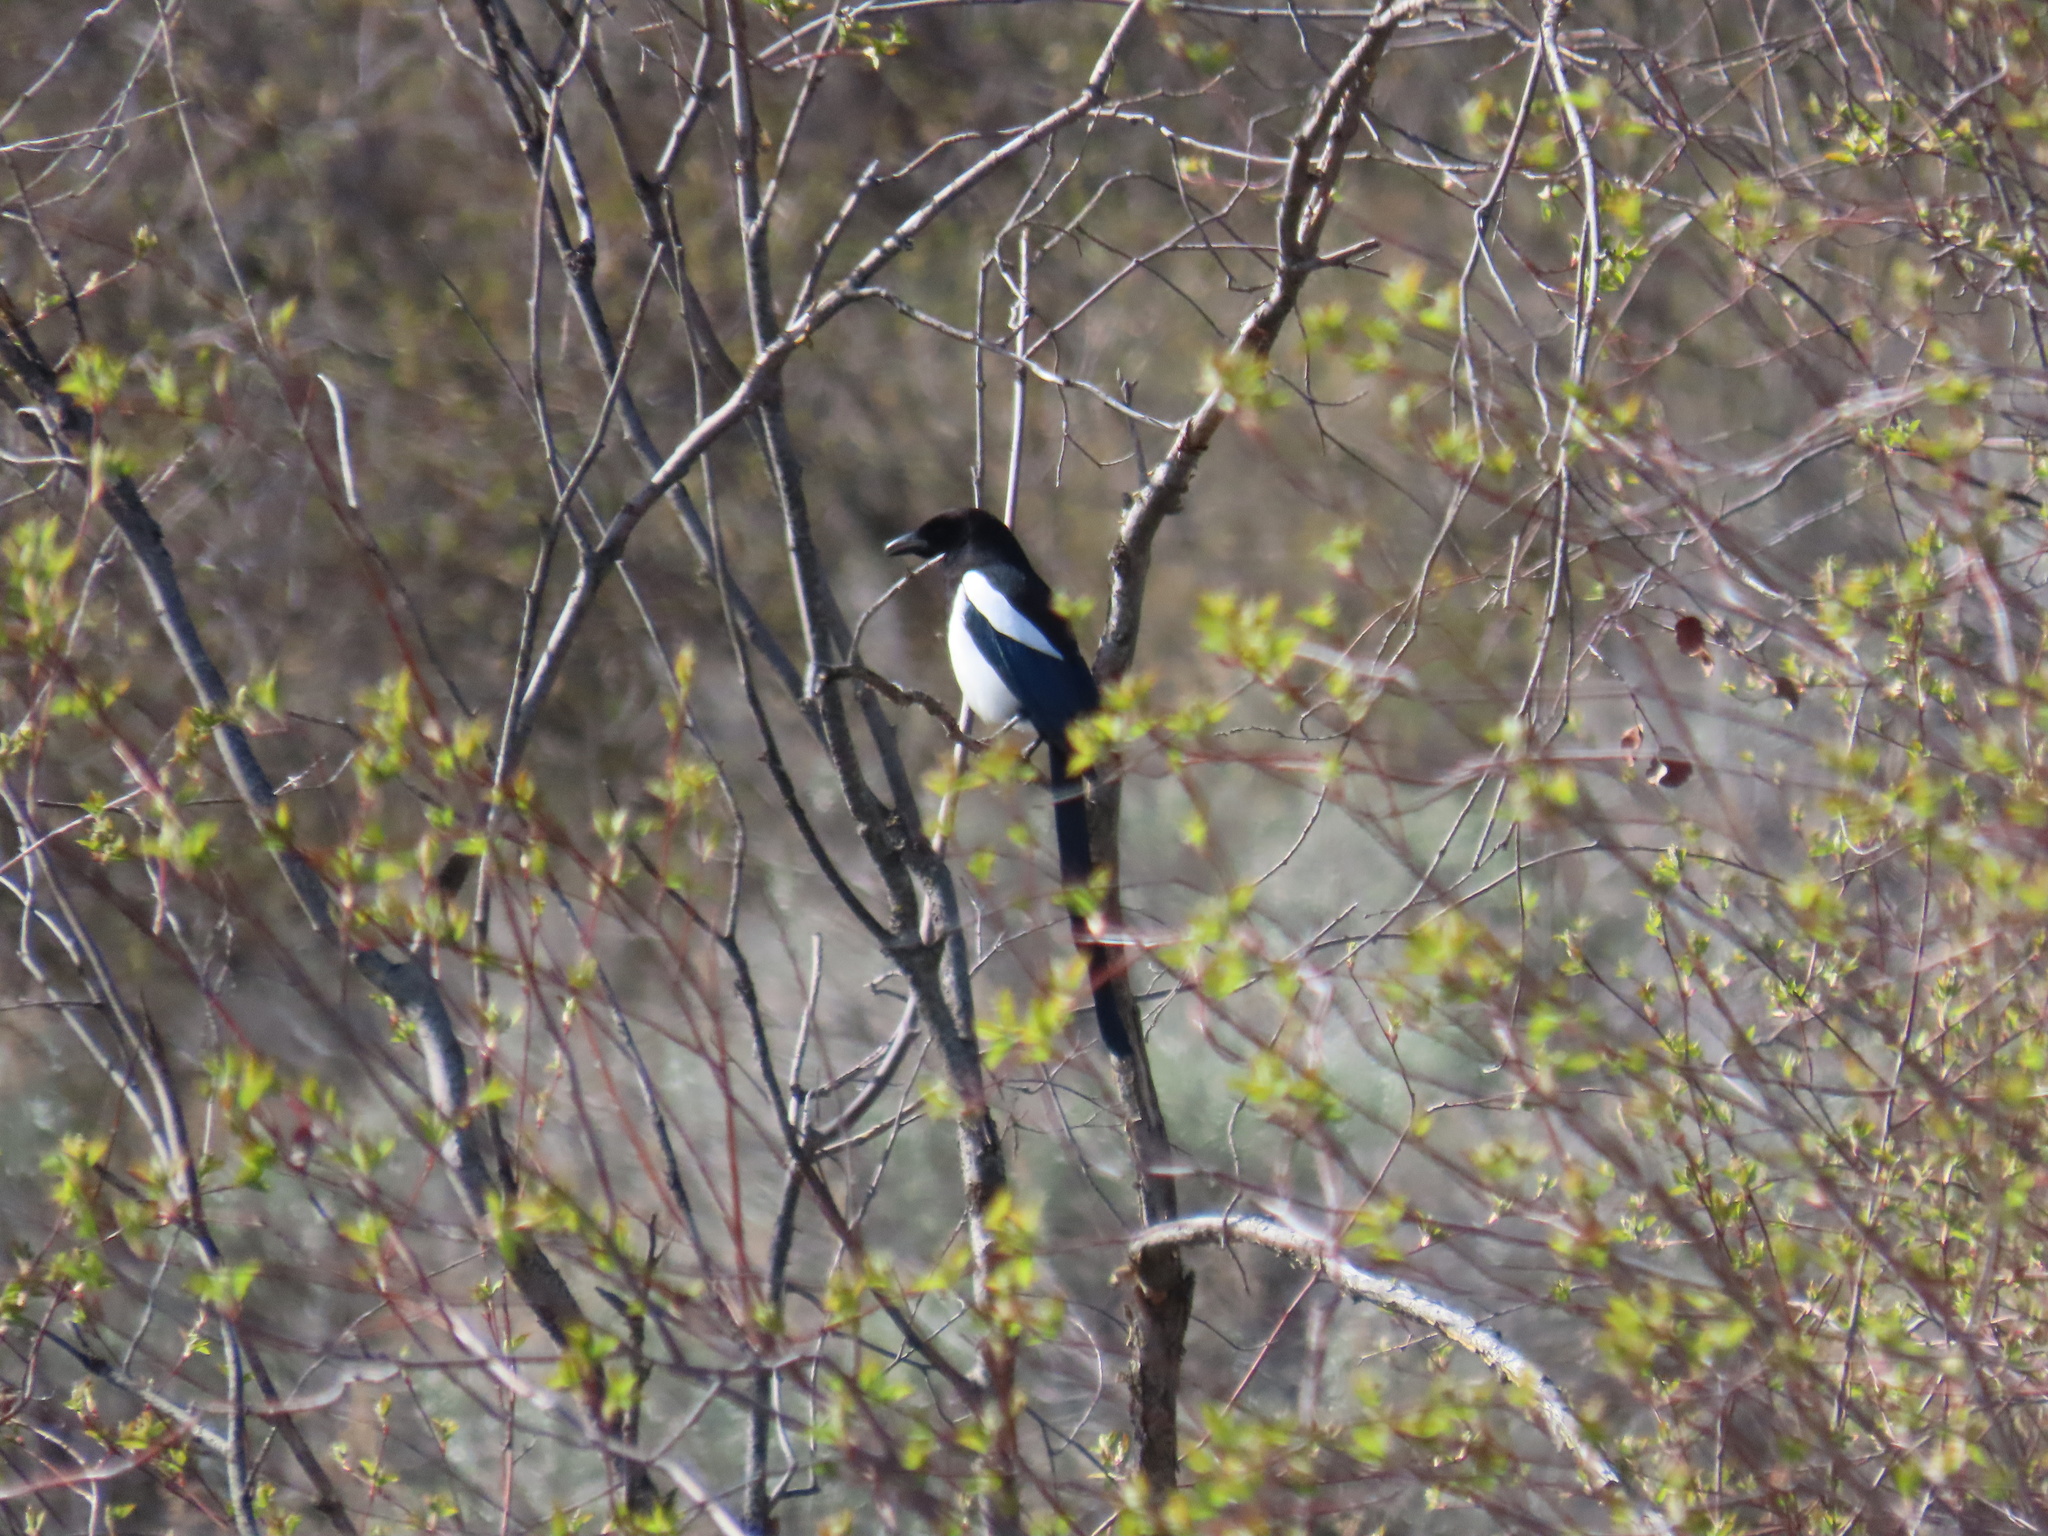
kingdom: Animalia
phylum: Chordata
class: Aves
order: Passeriformes
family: Corvidae
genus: Pica
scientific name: Pica hudsonia
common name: Black-billed magpie
